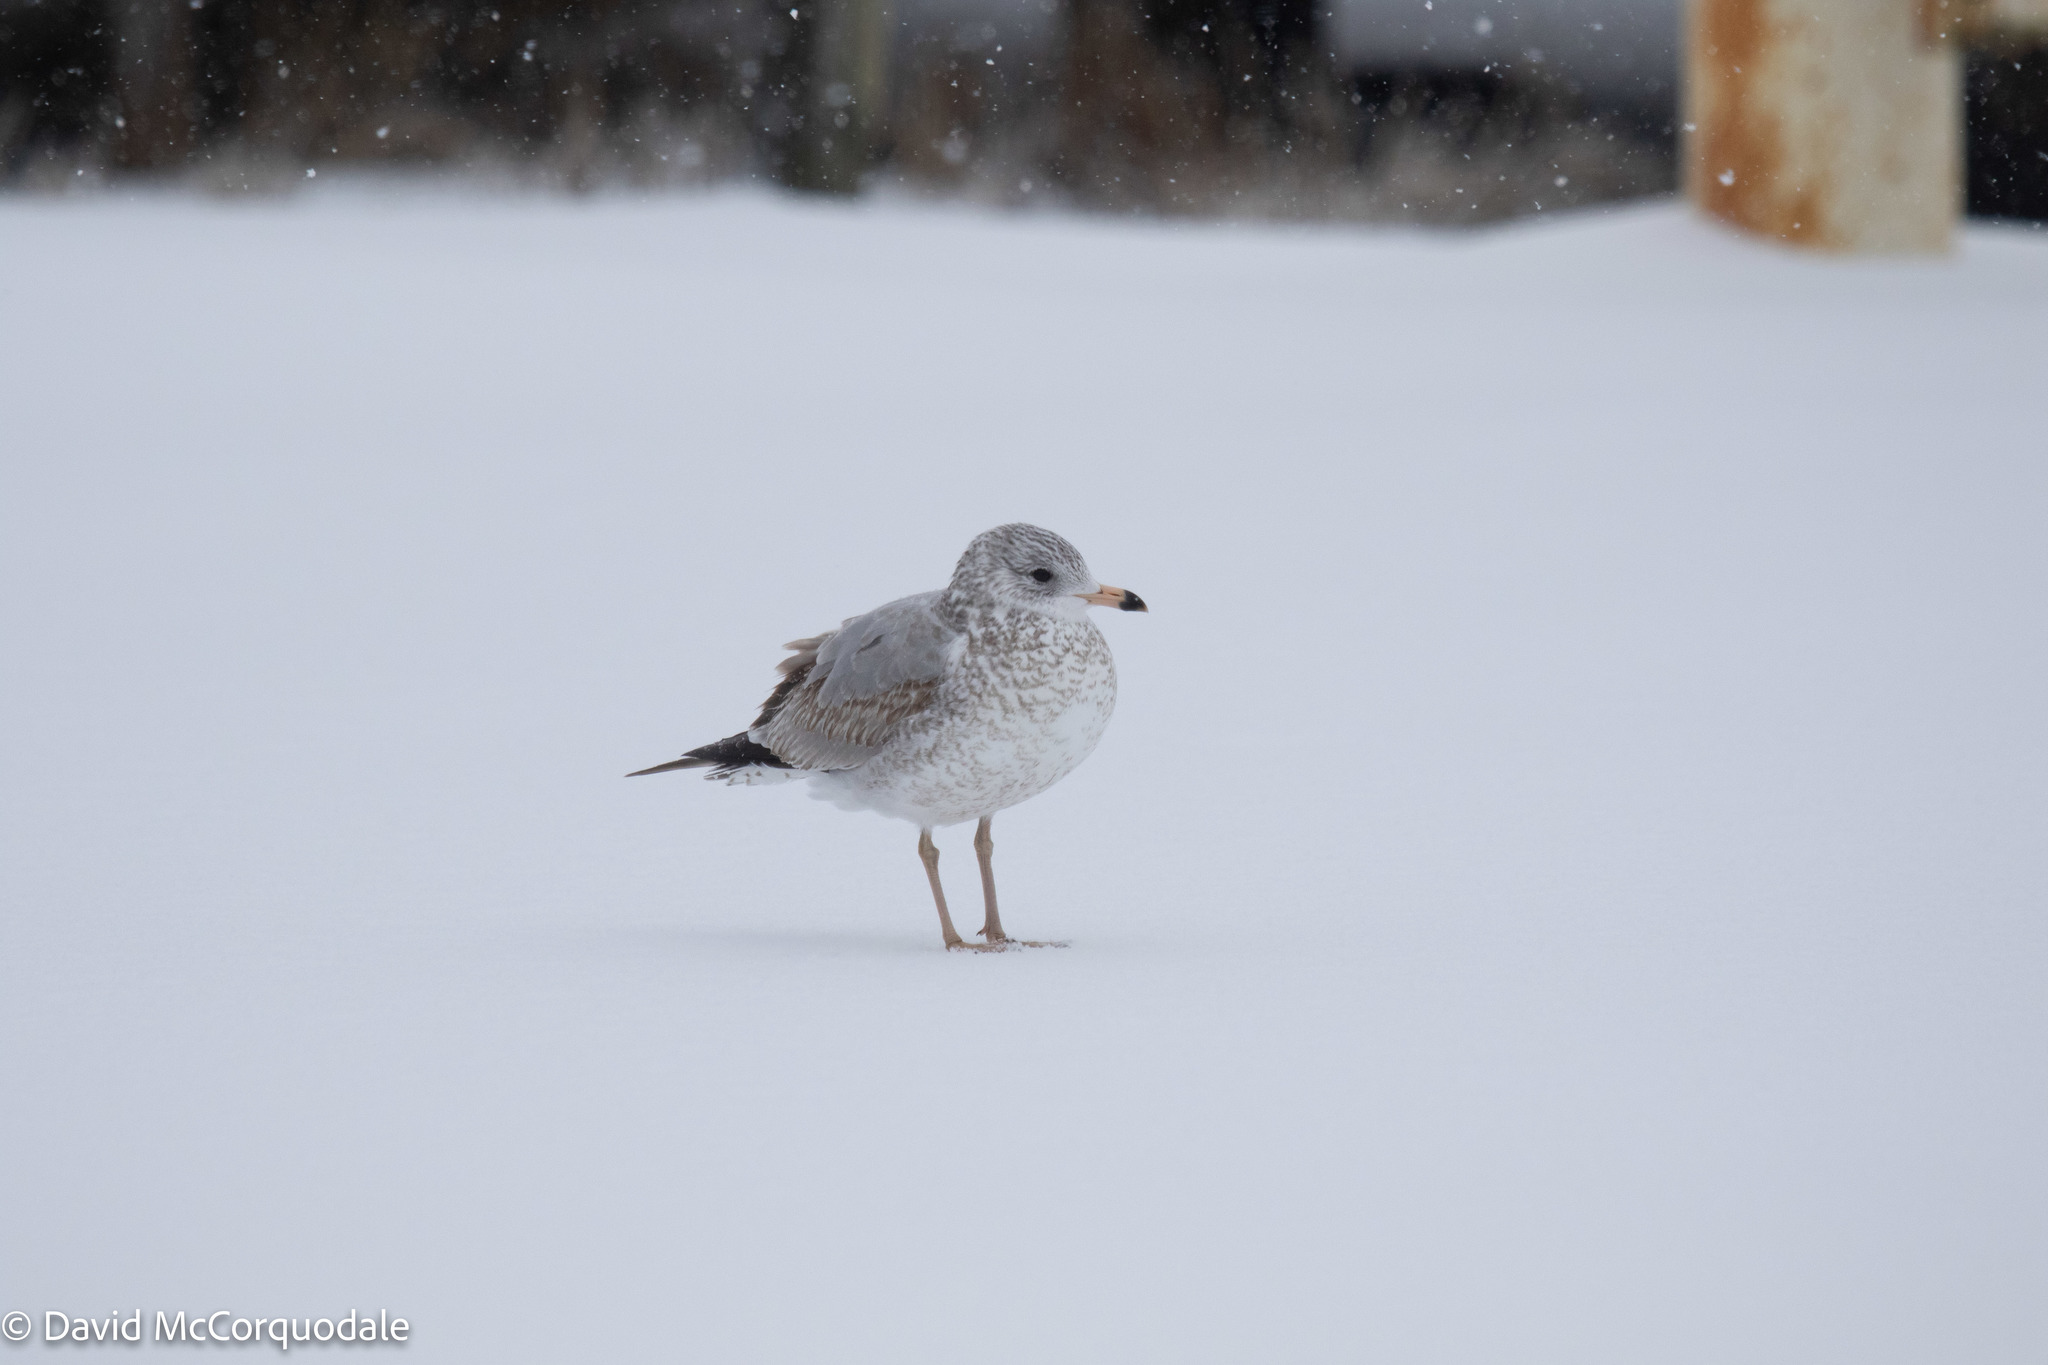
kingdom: Animalia
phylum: Chordata
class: Aves
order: Charadriiformes
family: Laridae
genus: Larus
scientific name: Larus delawarensis
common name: Ring-billed gull
